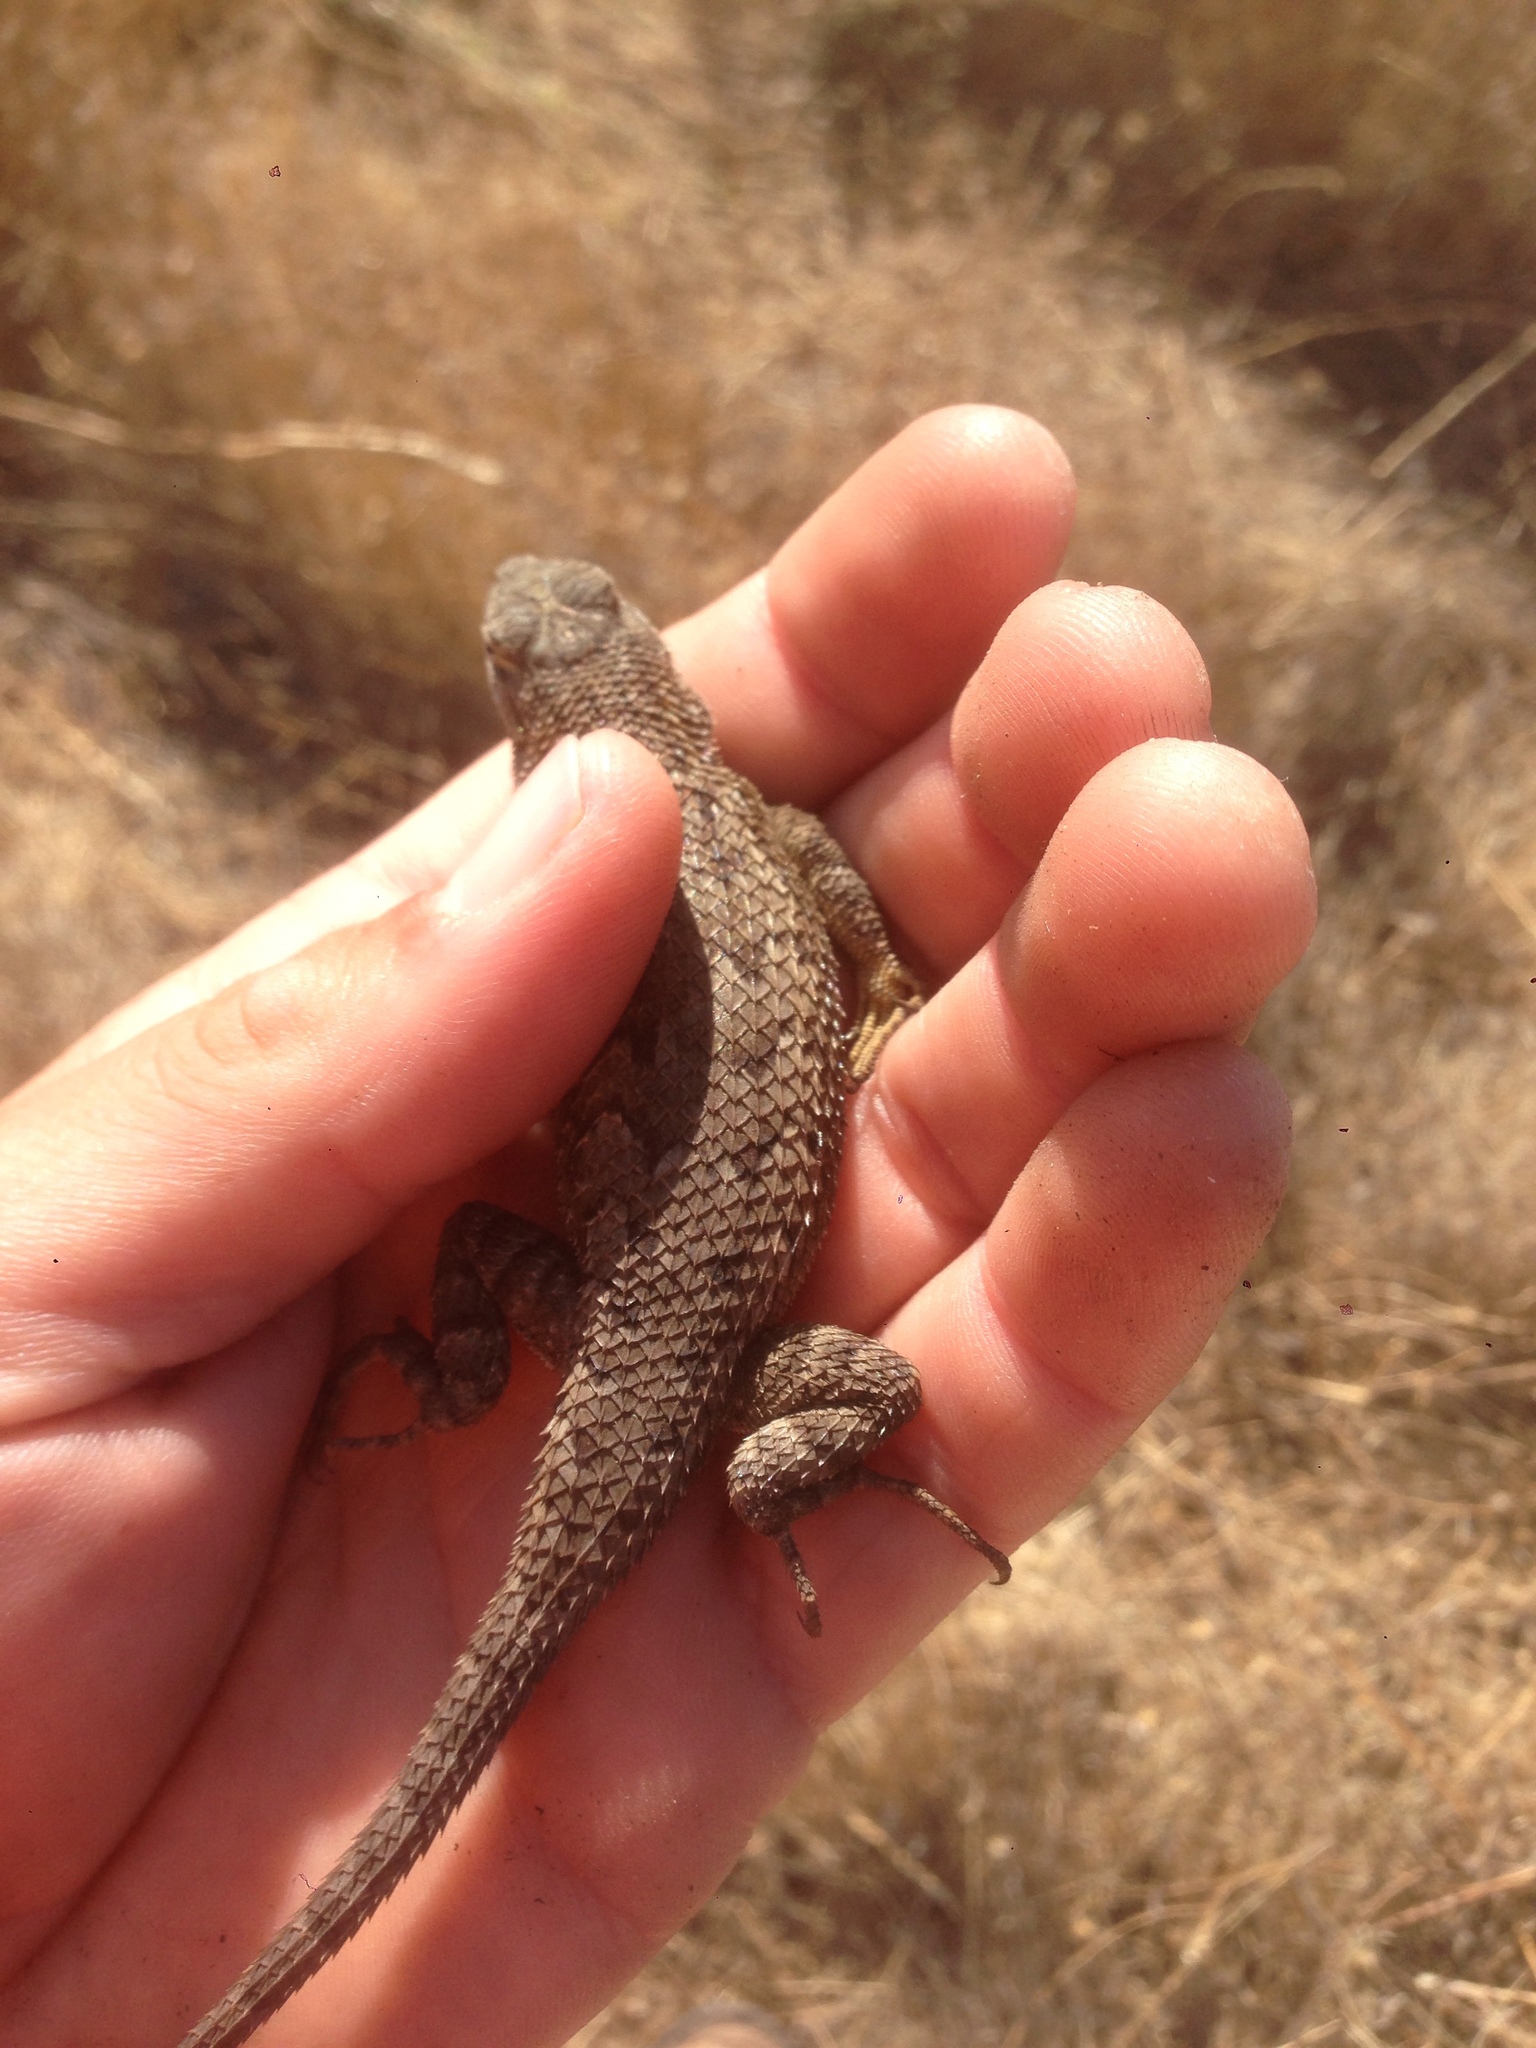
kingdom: Animalia
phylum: Chordata
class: Squamata
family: Phrynosomatidae
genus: Sceloporus
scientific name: Sceloporus occidentalis
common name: Western fence lizard
